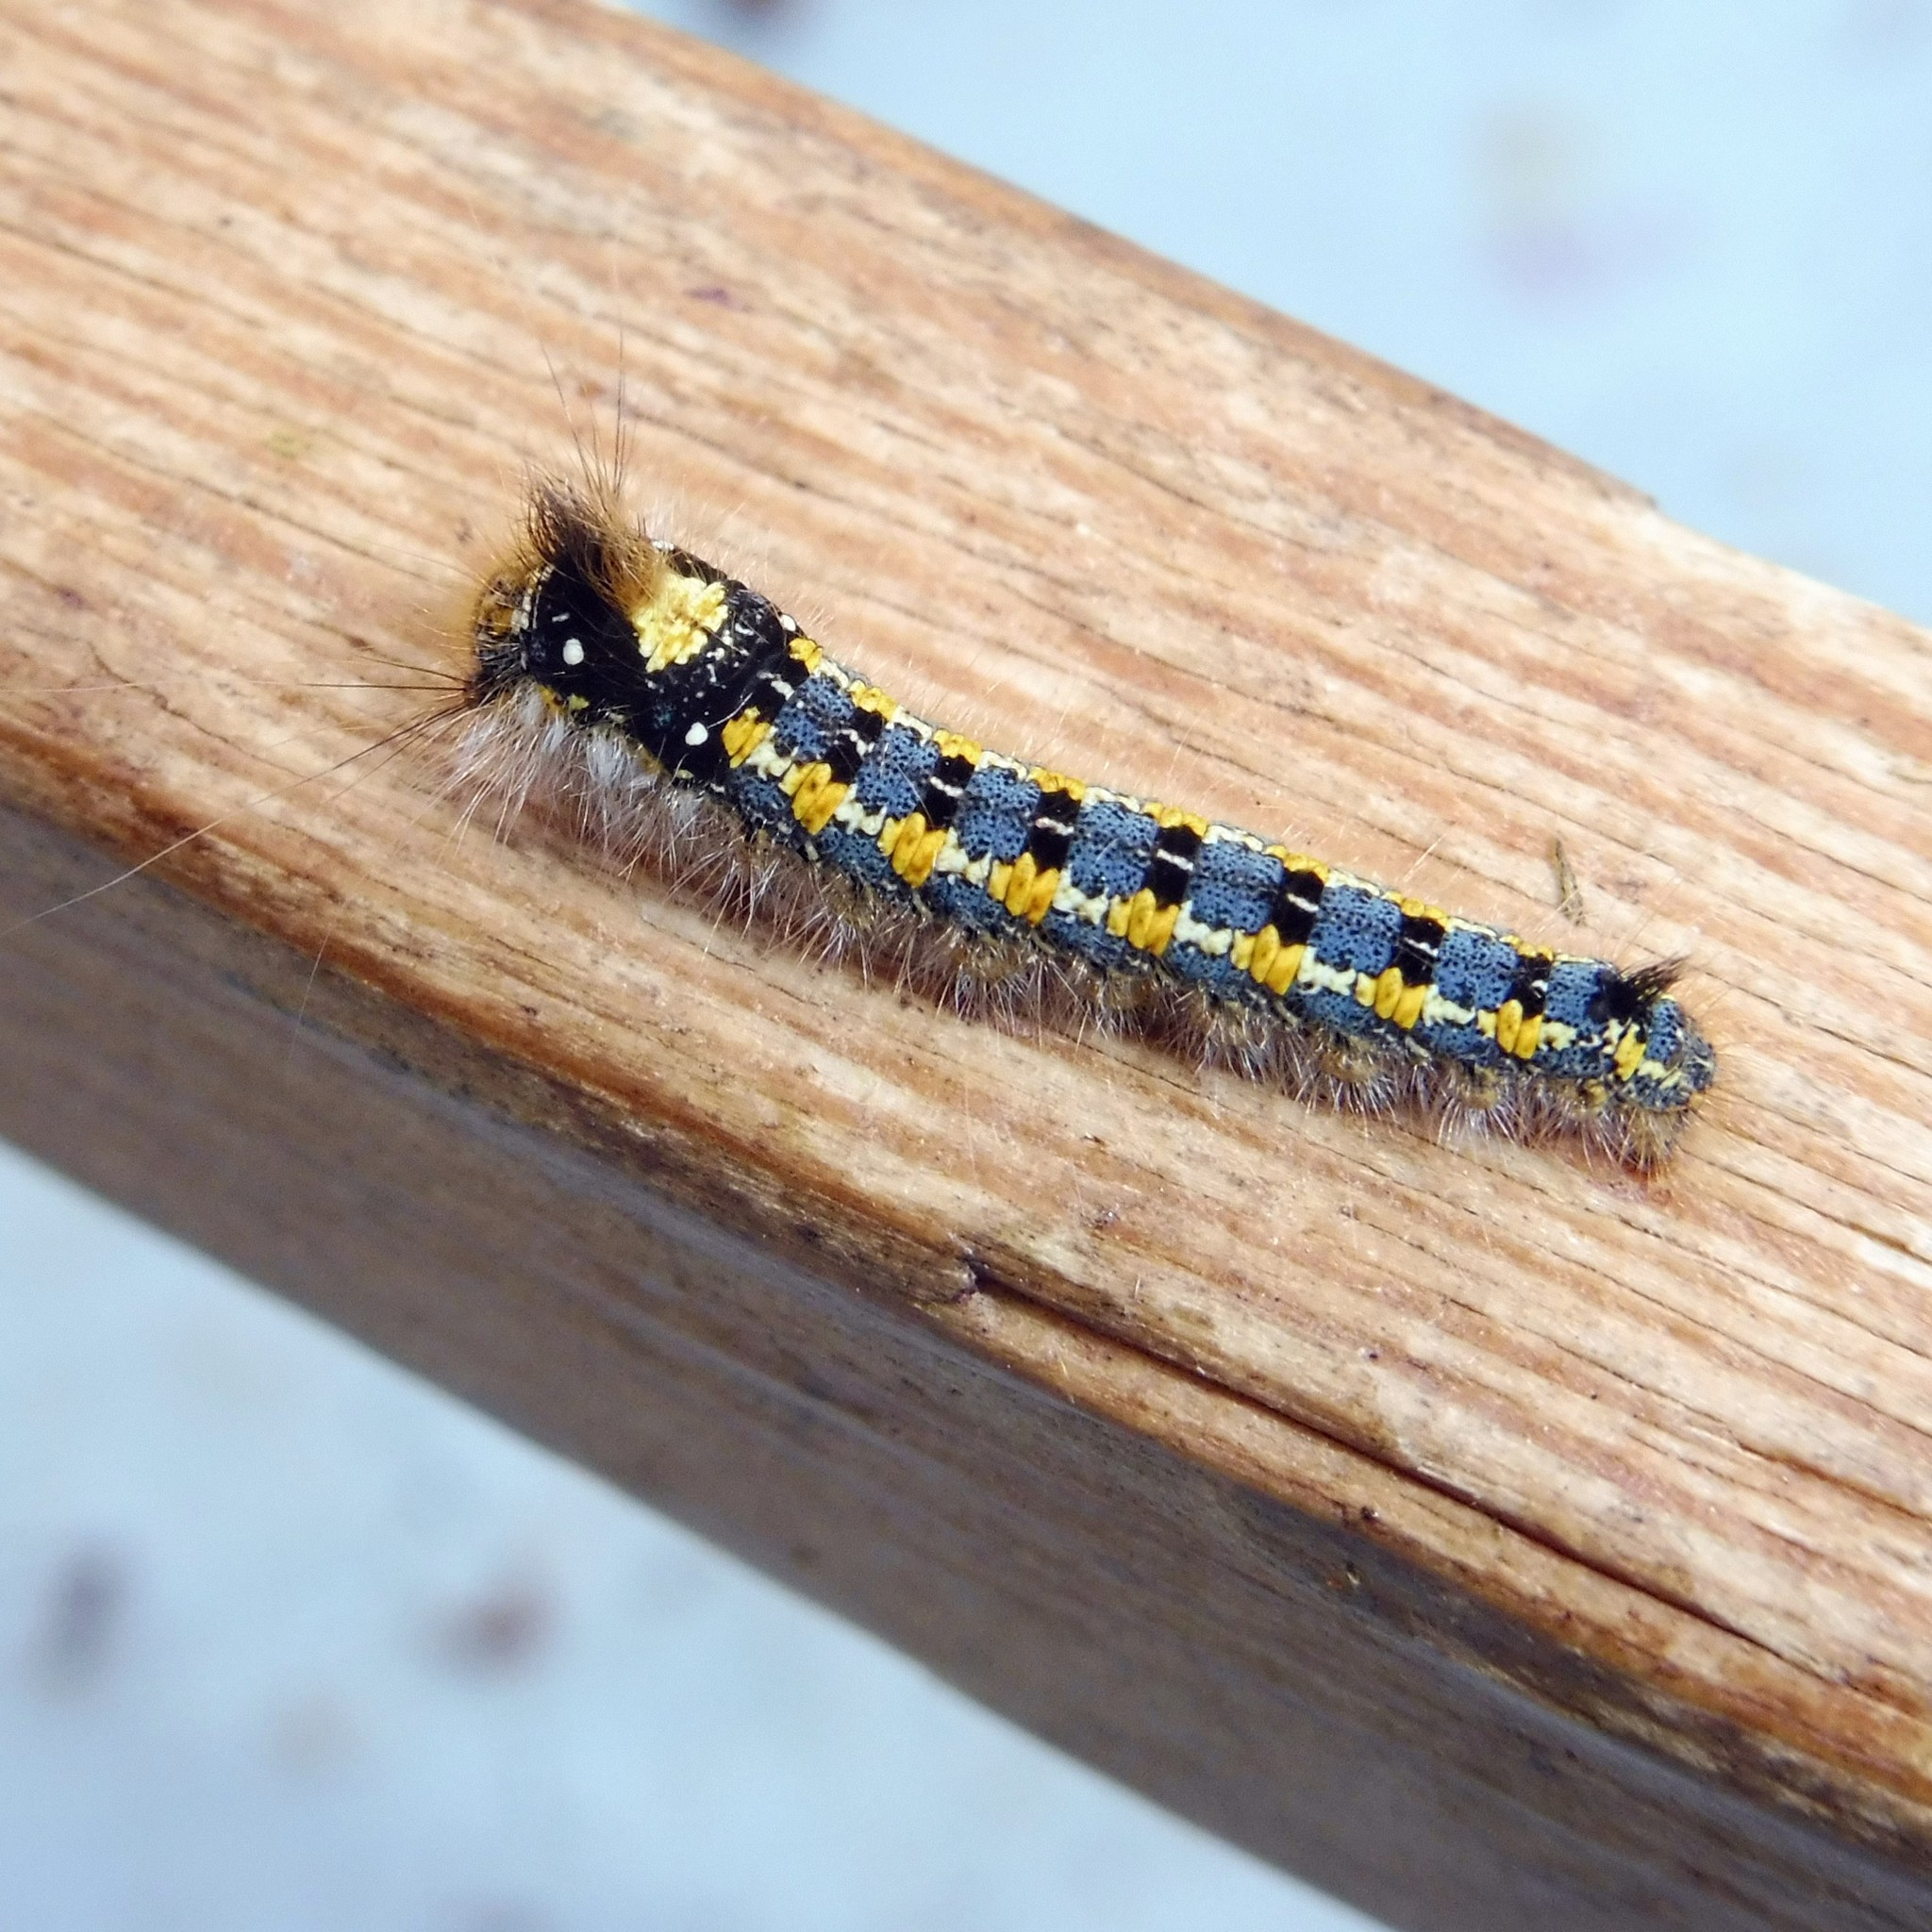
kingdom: Animalia
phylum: Arthropoda
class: Insecta
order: Lepidoptera
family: Lasiocampidae
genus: Euthrix
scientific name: Euthrix potatoria
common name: Drinker
